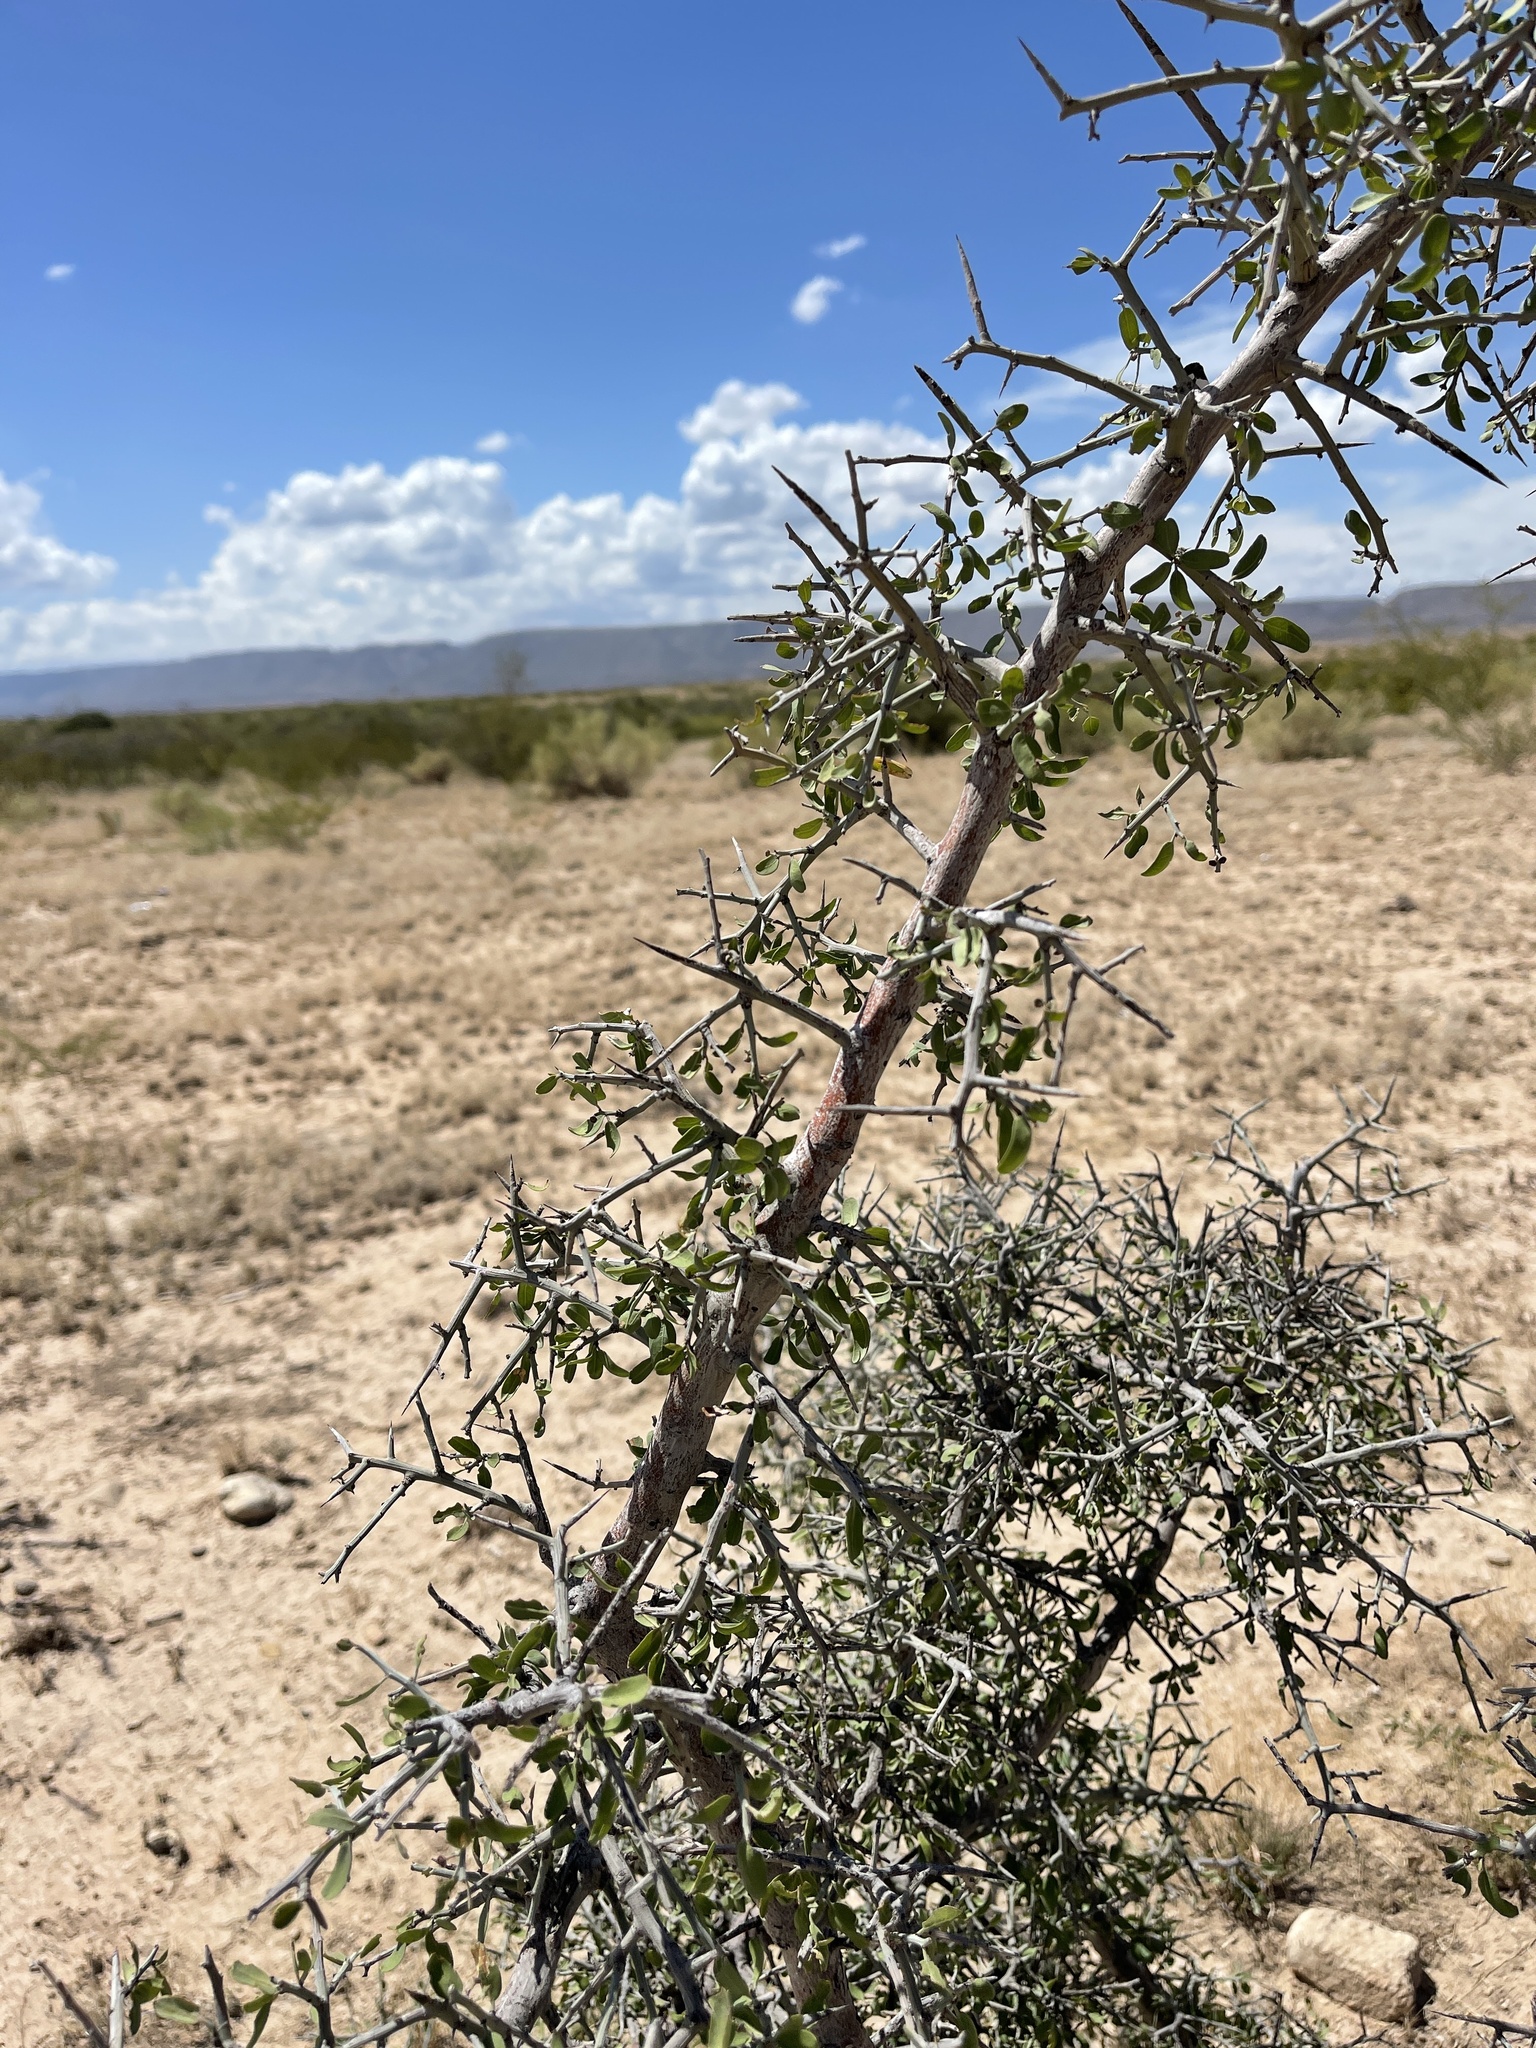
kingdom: Plantae
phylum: Tracheophyta
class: Magnoliopsida
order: Rosales
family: Rhamnaceae
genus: Sarcomphalus
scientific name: Sarcomphalus obtusifolius
